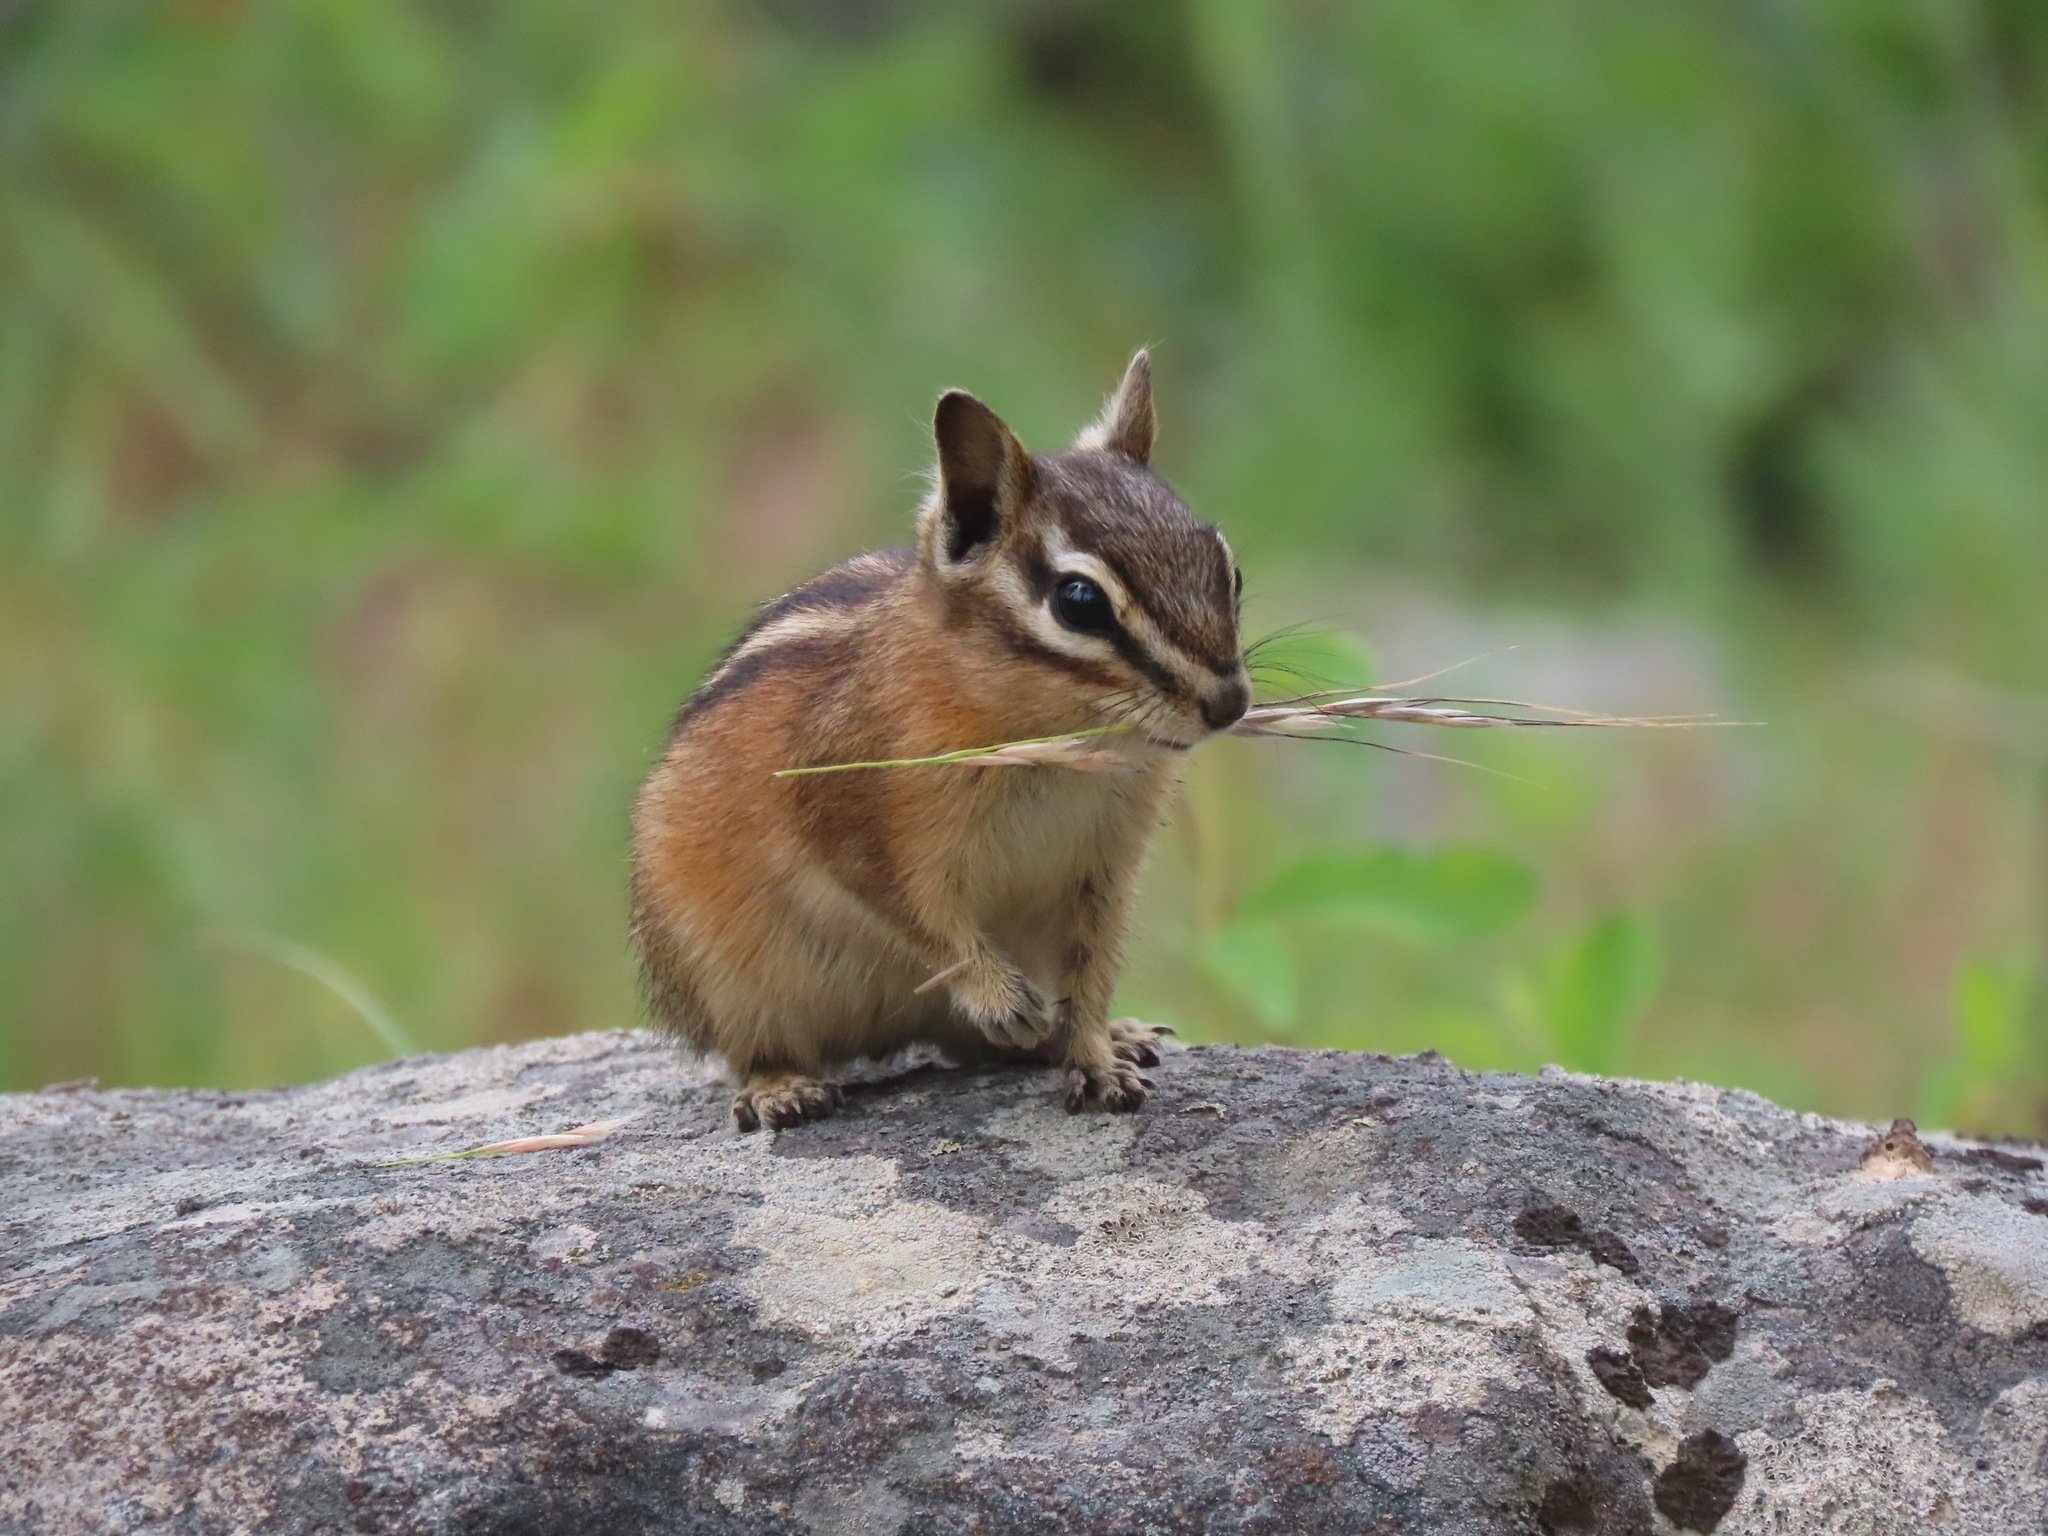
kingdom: Animalia
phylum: Chordata
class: Mammalia
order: Rodentia
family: Sciuridae
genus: Tamias
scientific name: Tamias amoenus
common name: Yellow-pine chipmunk
